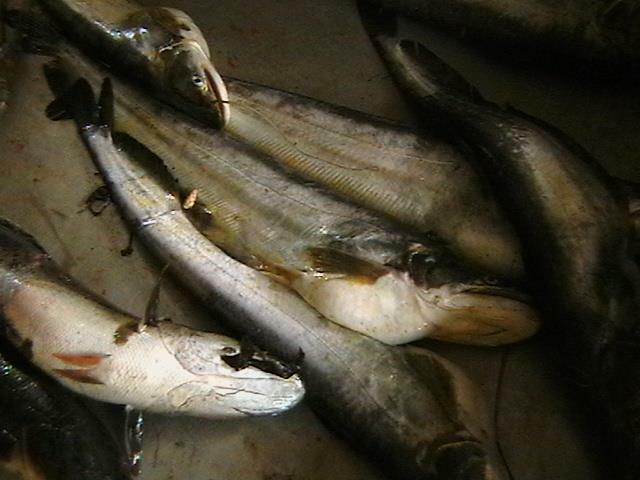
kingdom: Animalia
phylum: Chordata
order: Siluriformes
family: Siluridae
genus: Wallago
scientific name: Wallago attu
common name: Freshwater shark
